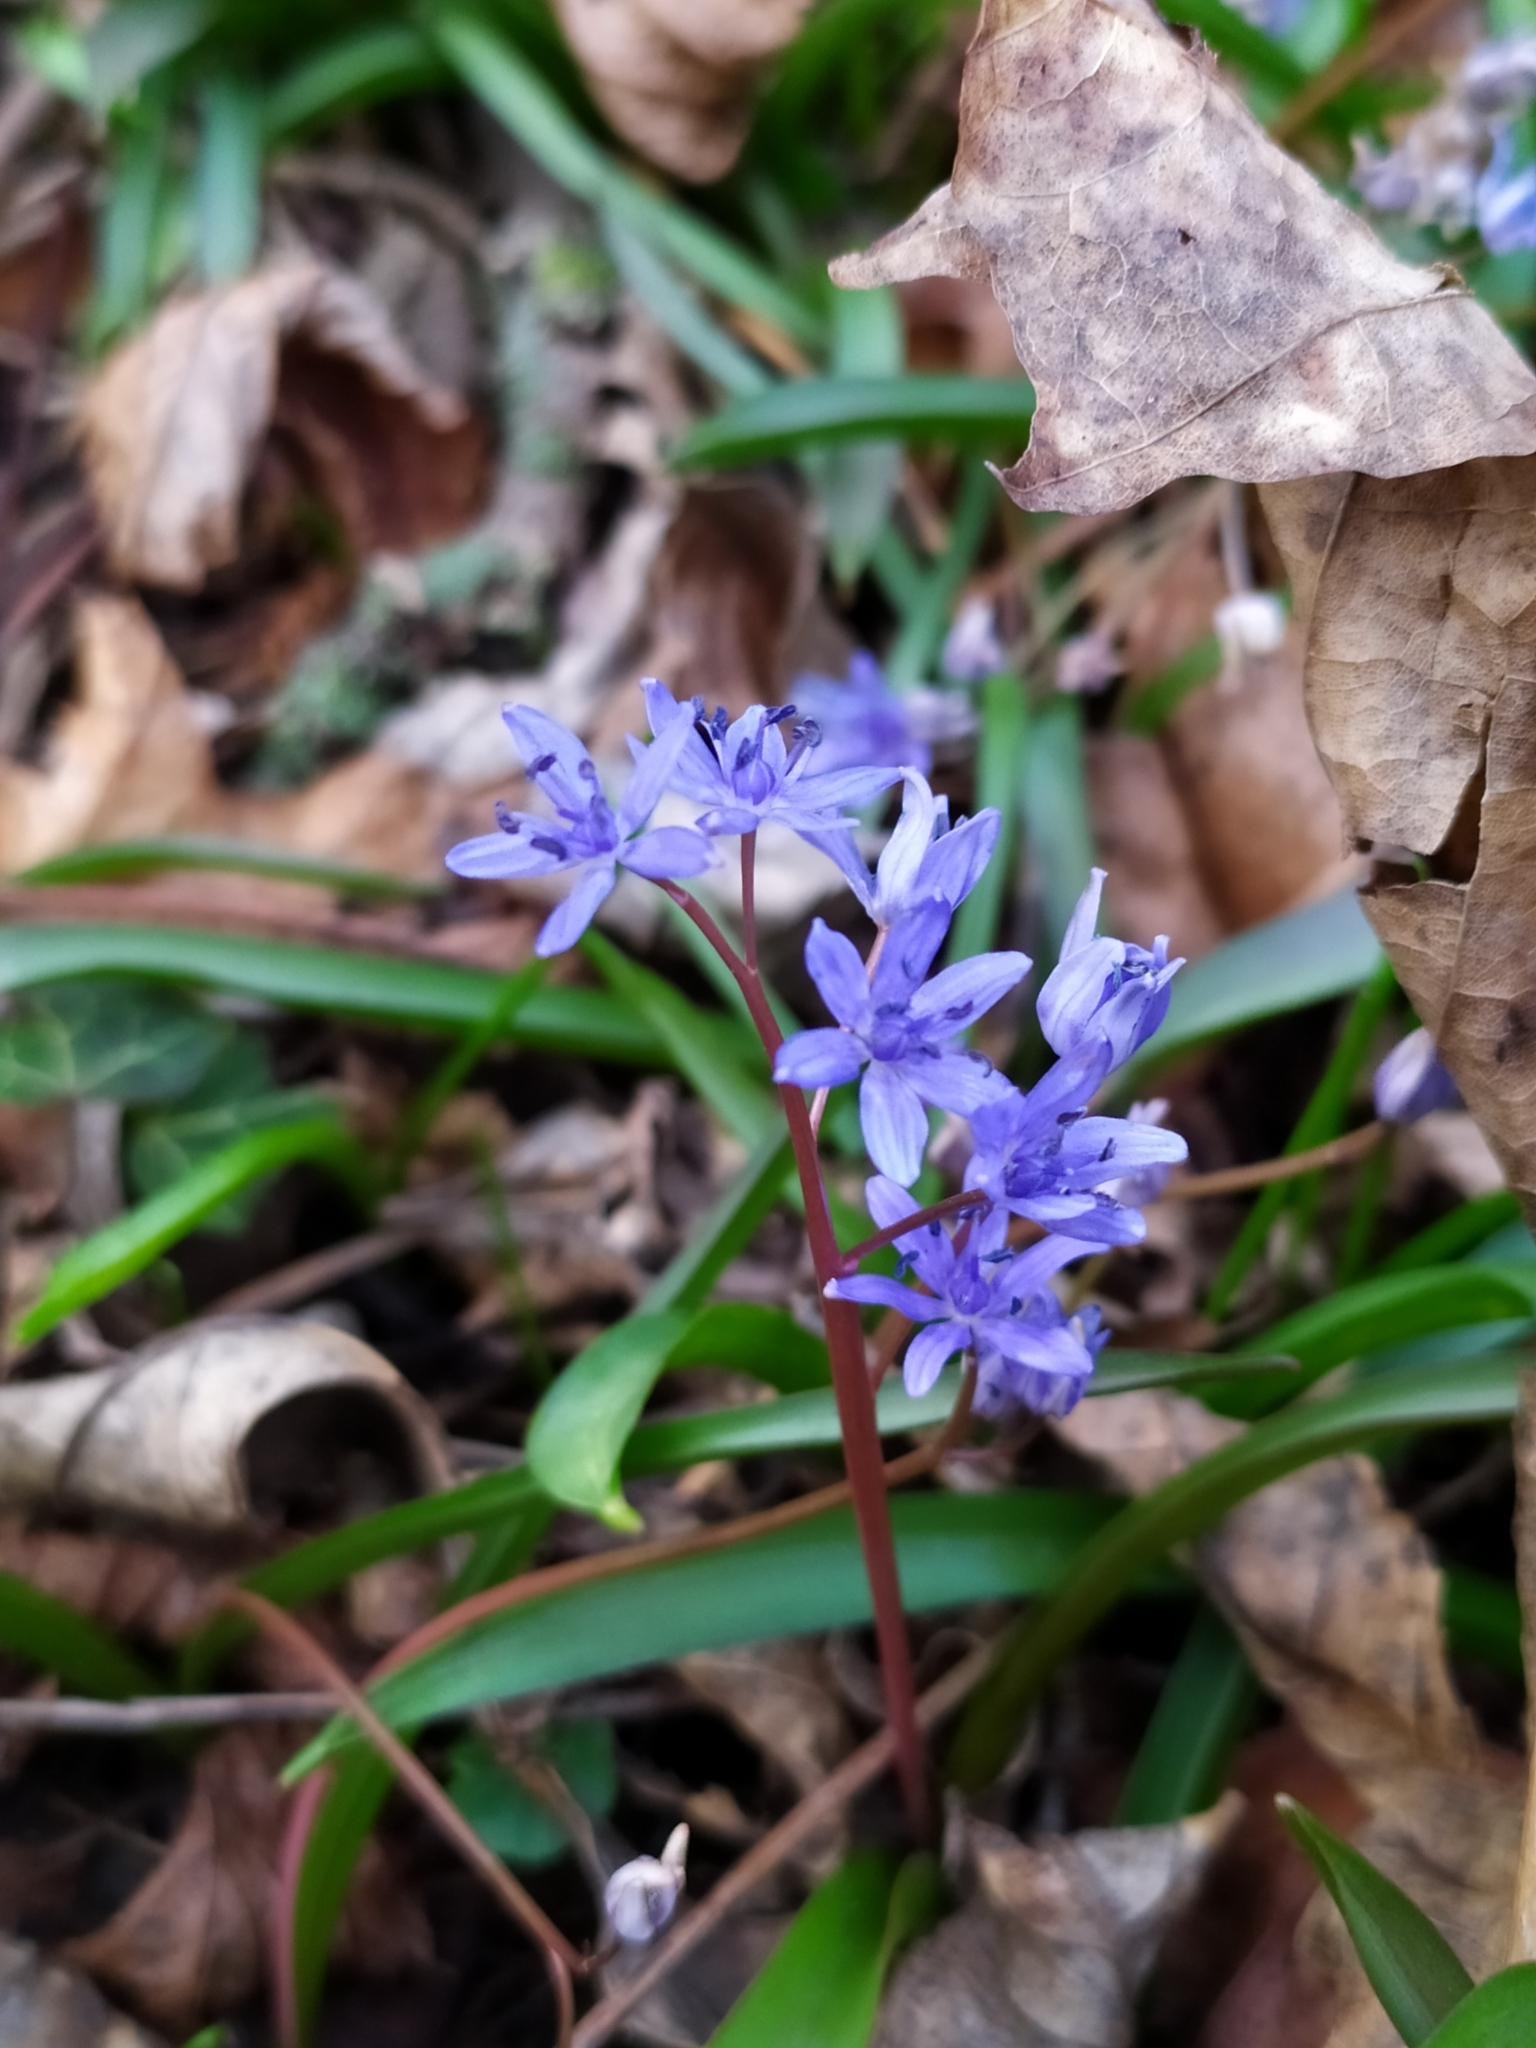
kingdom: Plantae
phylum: Tracheophyta
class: Liliopsida
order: Asparagales
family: Asparagaceae
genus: Scilla
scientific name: Scilla vindobonensis
